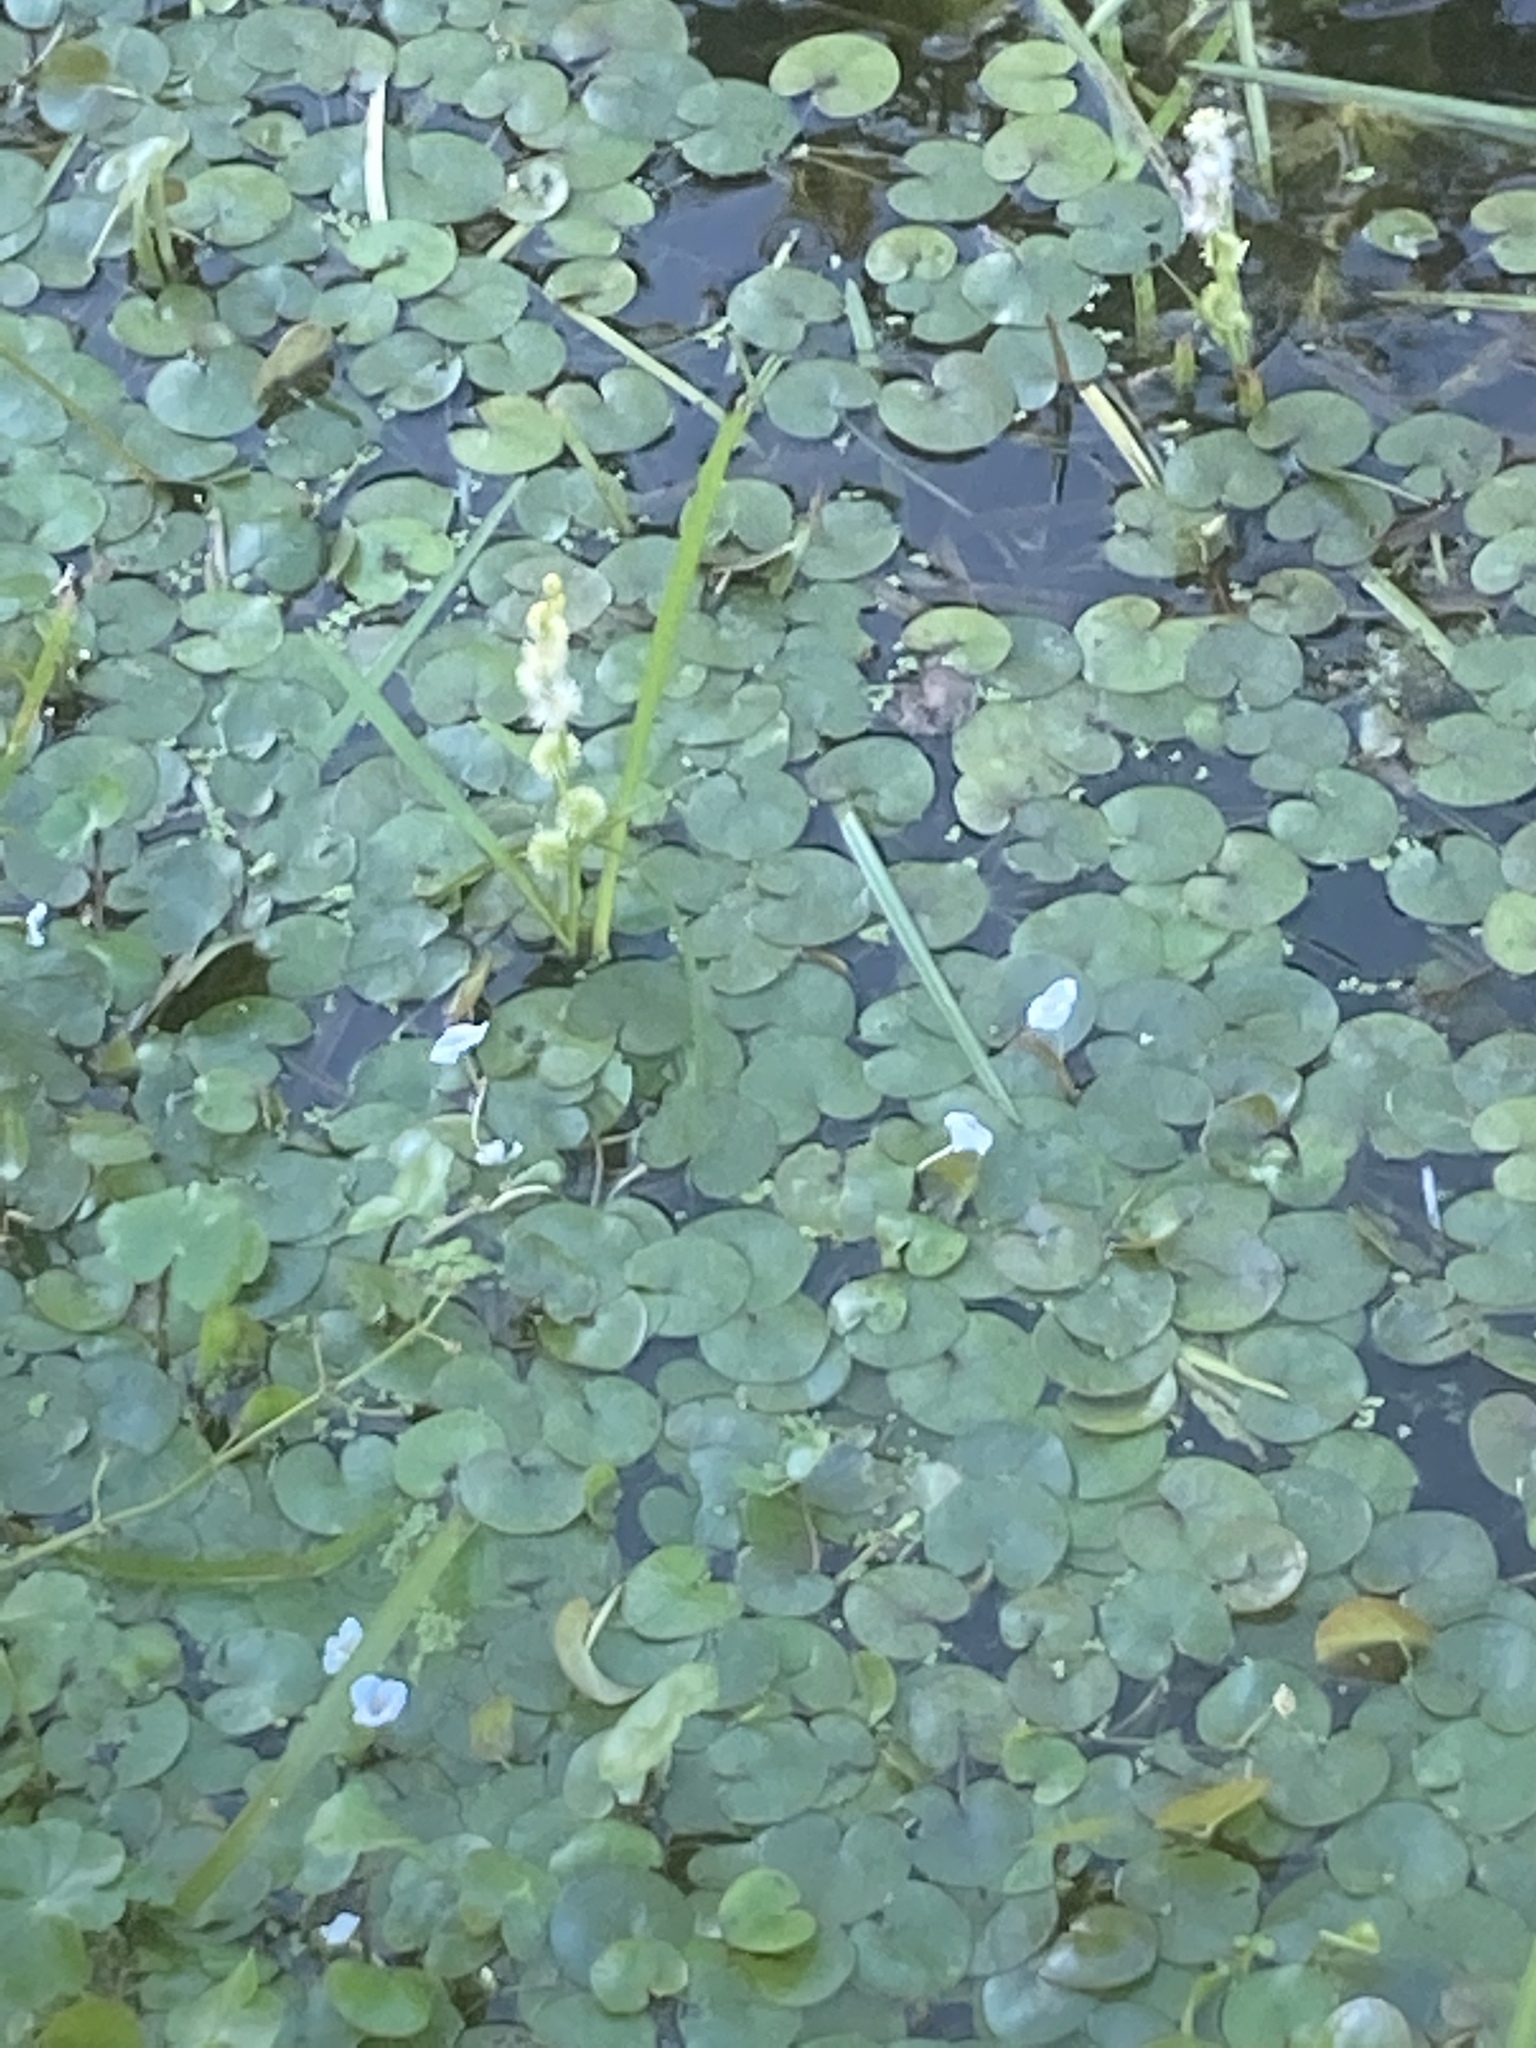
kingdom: Plantae
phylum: Tracheophyta
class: Liliopsida
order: Poales
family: Typhaceae
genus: Sparganium
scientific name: Sparganium emersum
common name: Unbranched bur-reed
